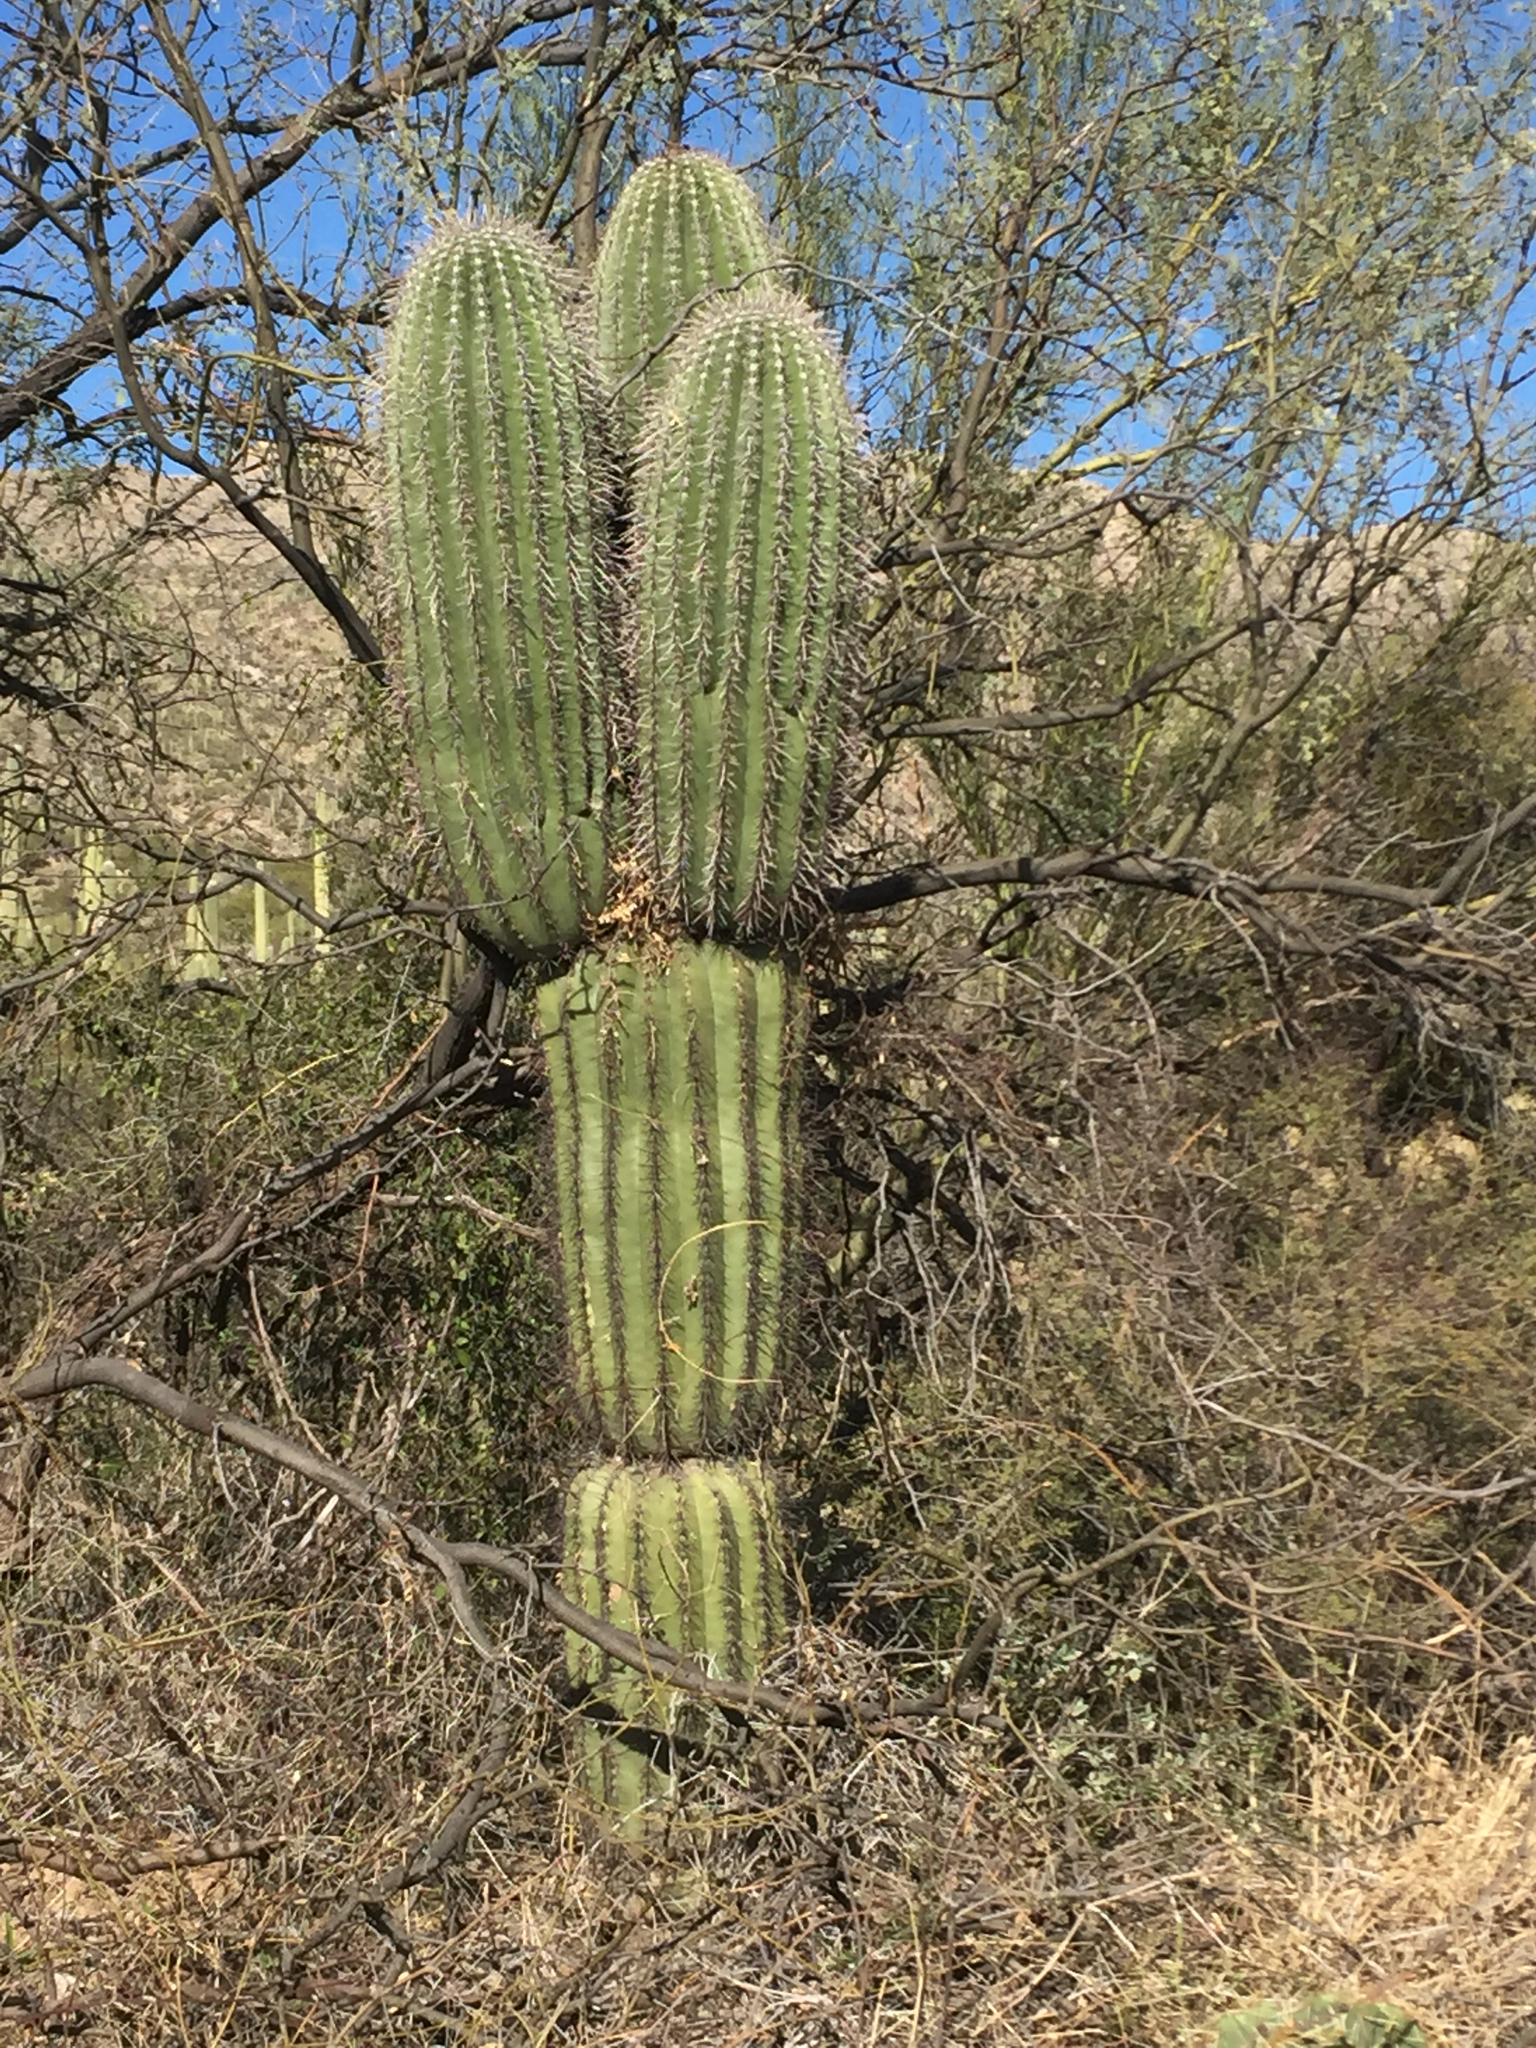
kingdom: Plantae
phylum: Tracheophyta
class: Magnoliopsida
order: Caryophyllales
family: Cactaceae
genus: Carnegiea
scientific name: Carnegiea gigantea
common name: Saguaro
